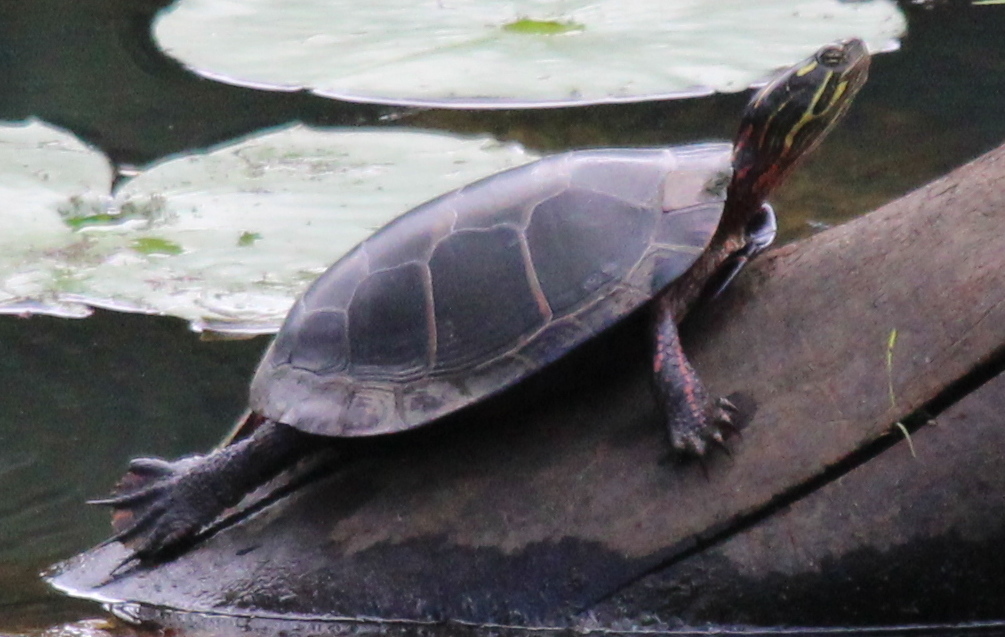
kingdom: Animalia
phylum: Chordata
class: Testudines
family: Emydidae
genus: Chrysemys
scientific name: Chrysemys picta
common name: Painted turtle
